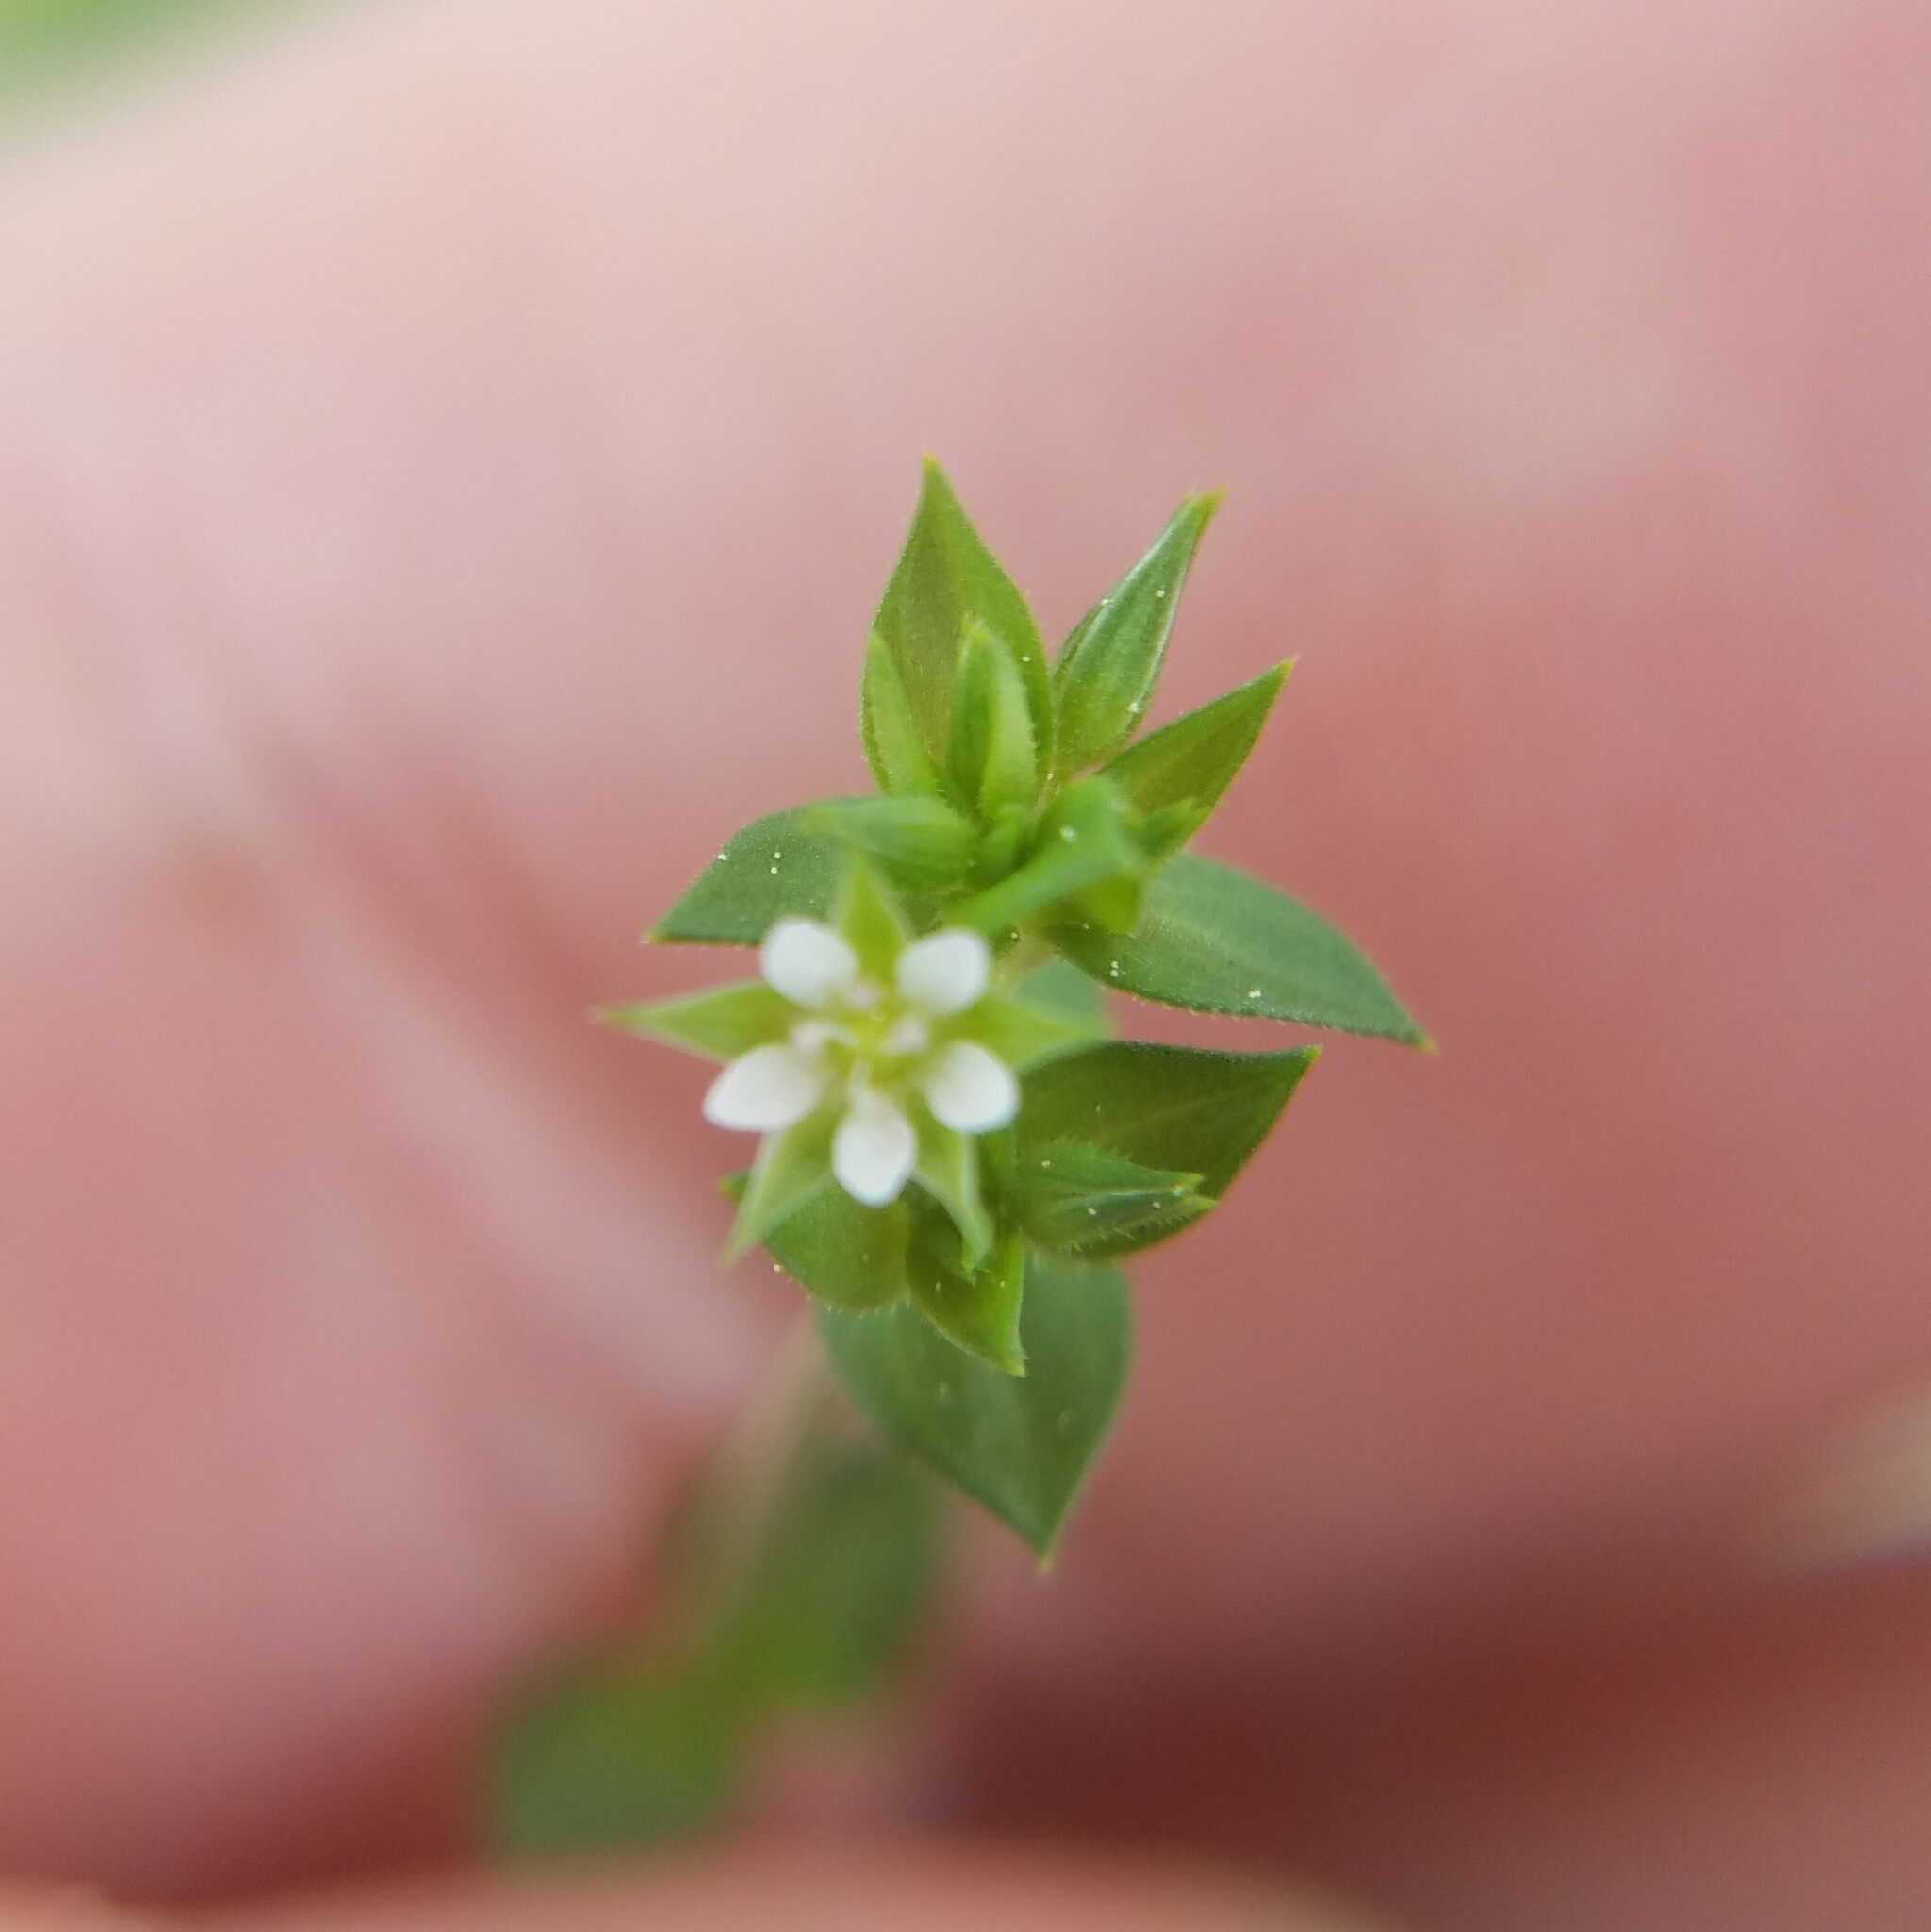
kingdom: Plantae
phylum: Tracheophyta
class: Magnoliopsida
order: Caryophyllales
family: Caryophyllaceae
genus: Arenaria
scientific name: Arenaria serpyllifolia
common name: Thyme-leaved sandwort
